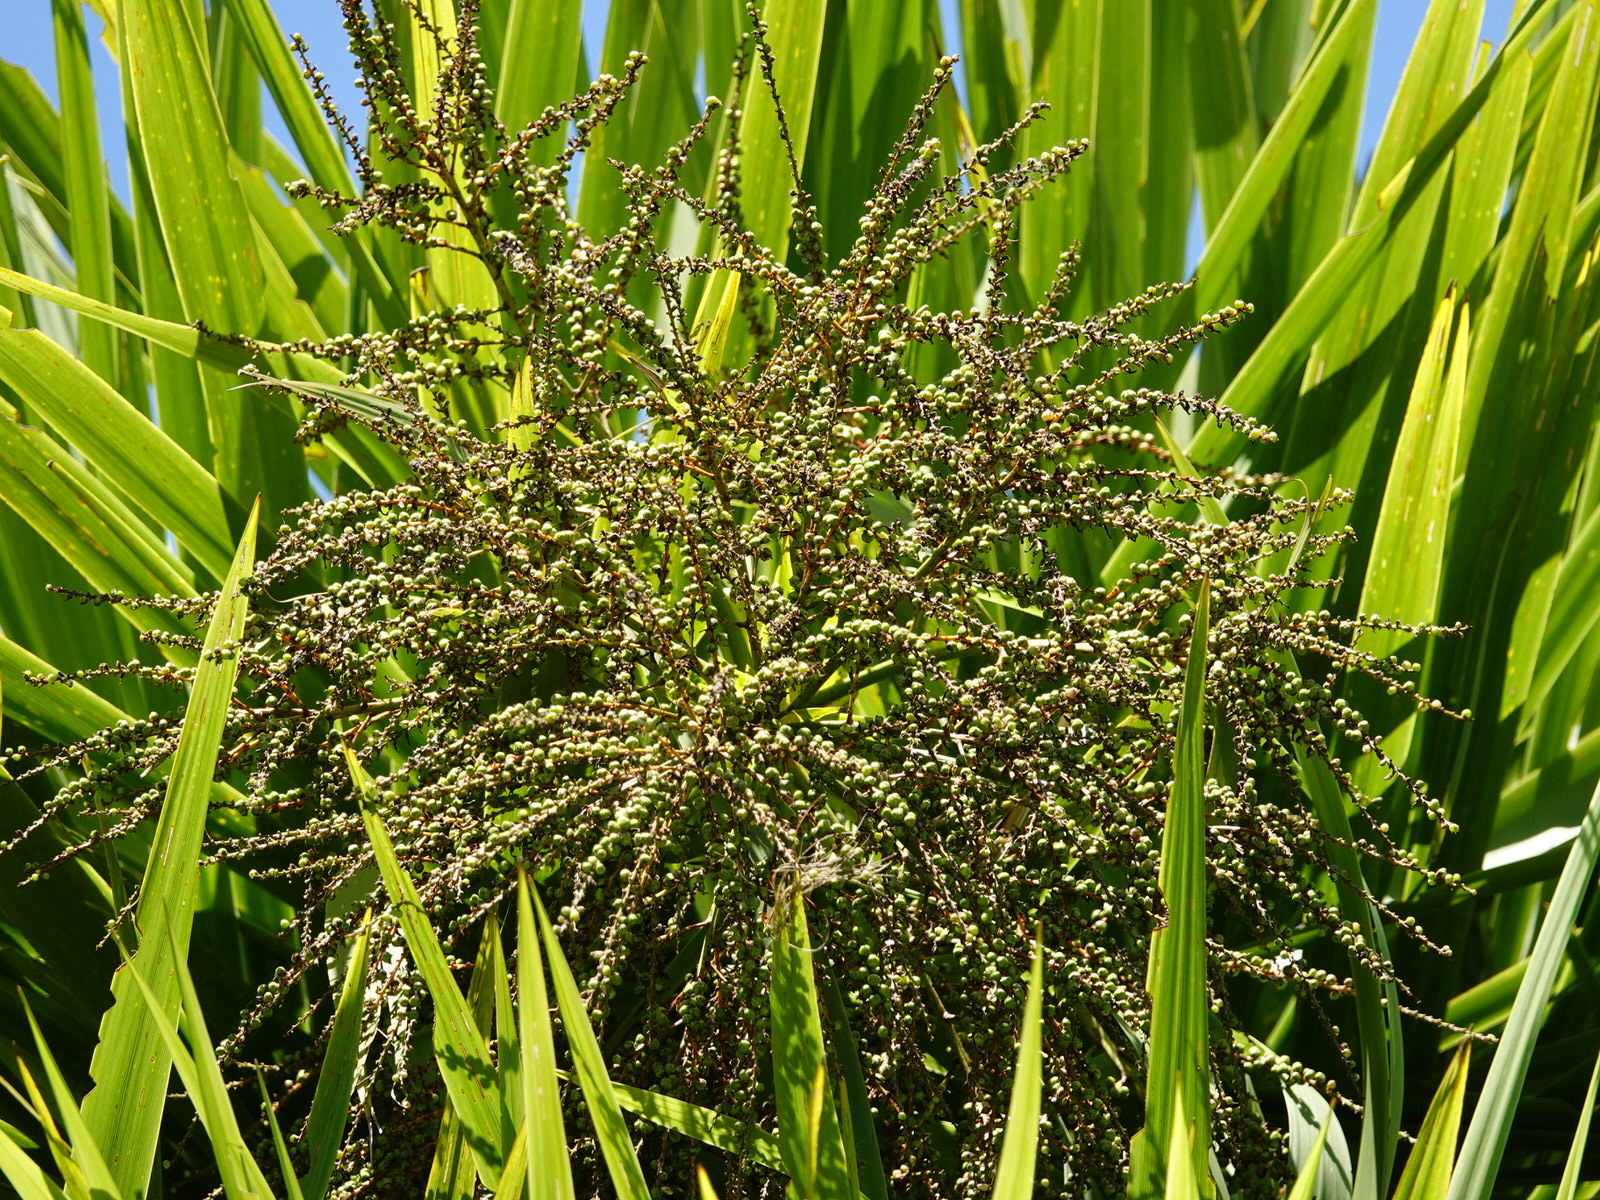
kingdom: Plantae
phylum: Tracheophyta
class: Liliopsida
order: Asparagales
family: Asparagaceae
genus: Cordyline
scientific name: Cordyline australis
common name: Cabbage-palm
